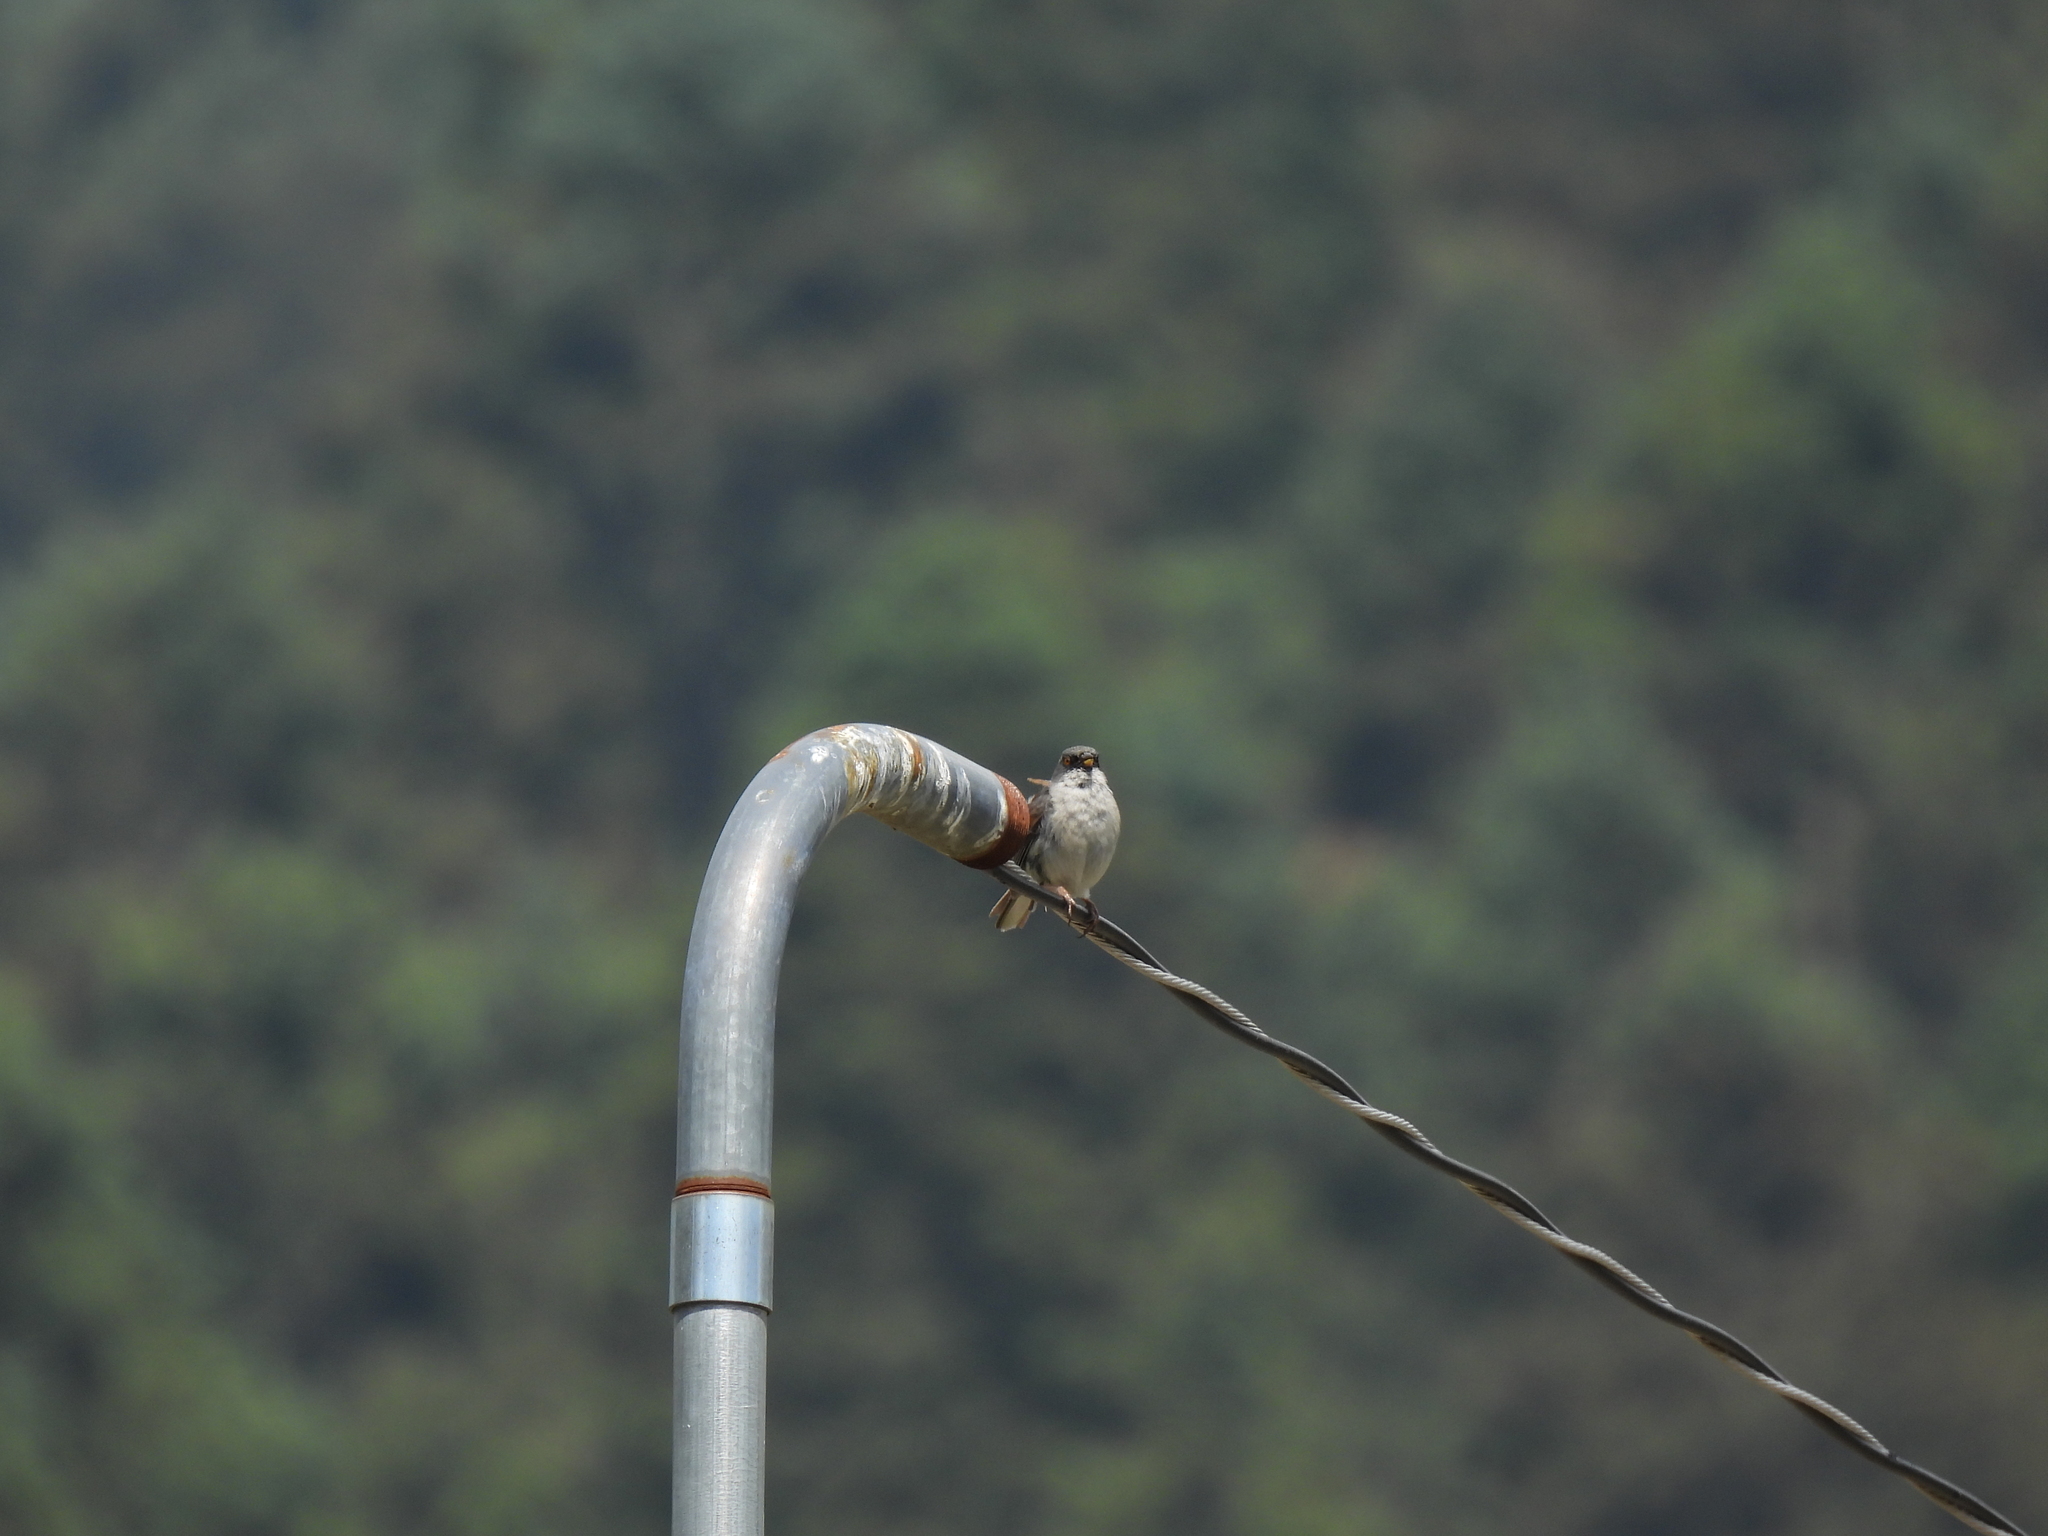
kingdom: Animalia
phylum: Chordata
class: Aves
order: Passeriformes
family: Passerellidae
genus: Junco
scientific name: Junco phaeonotus
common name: Yellow-eyed junco
